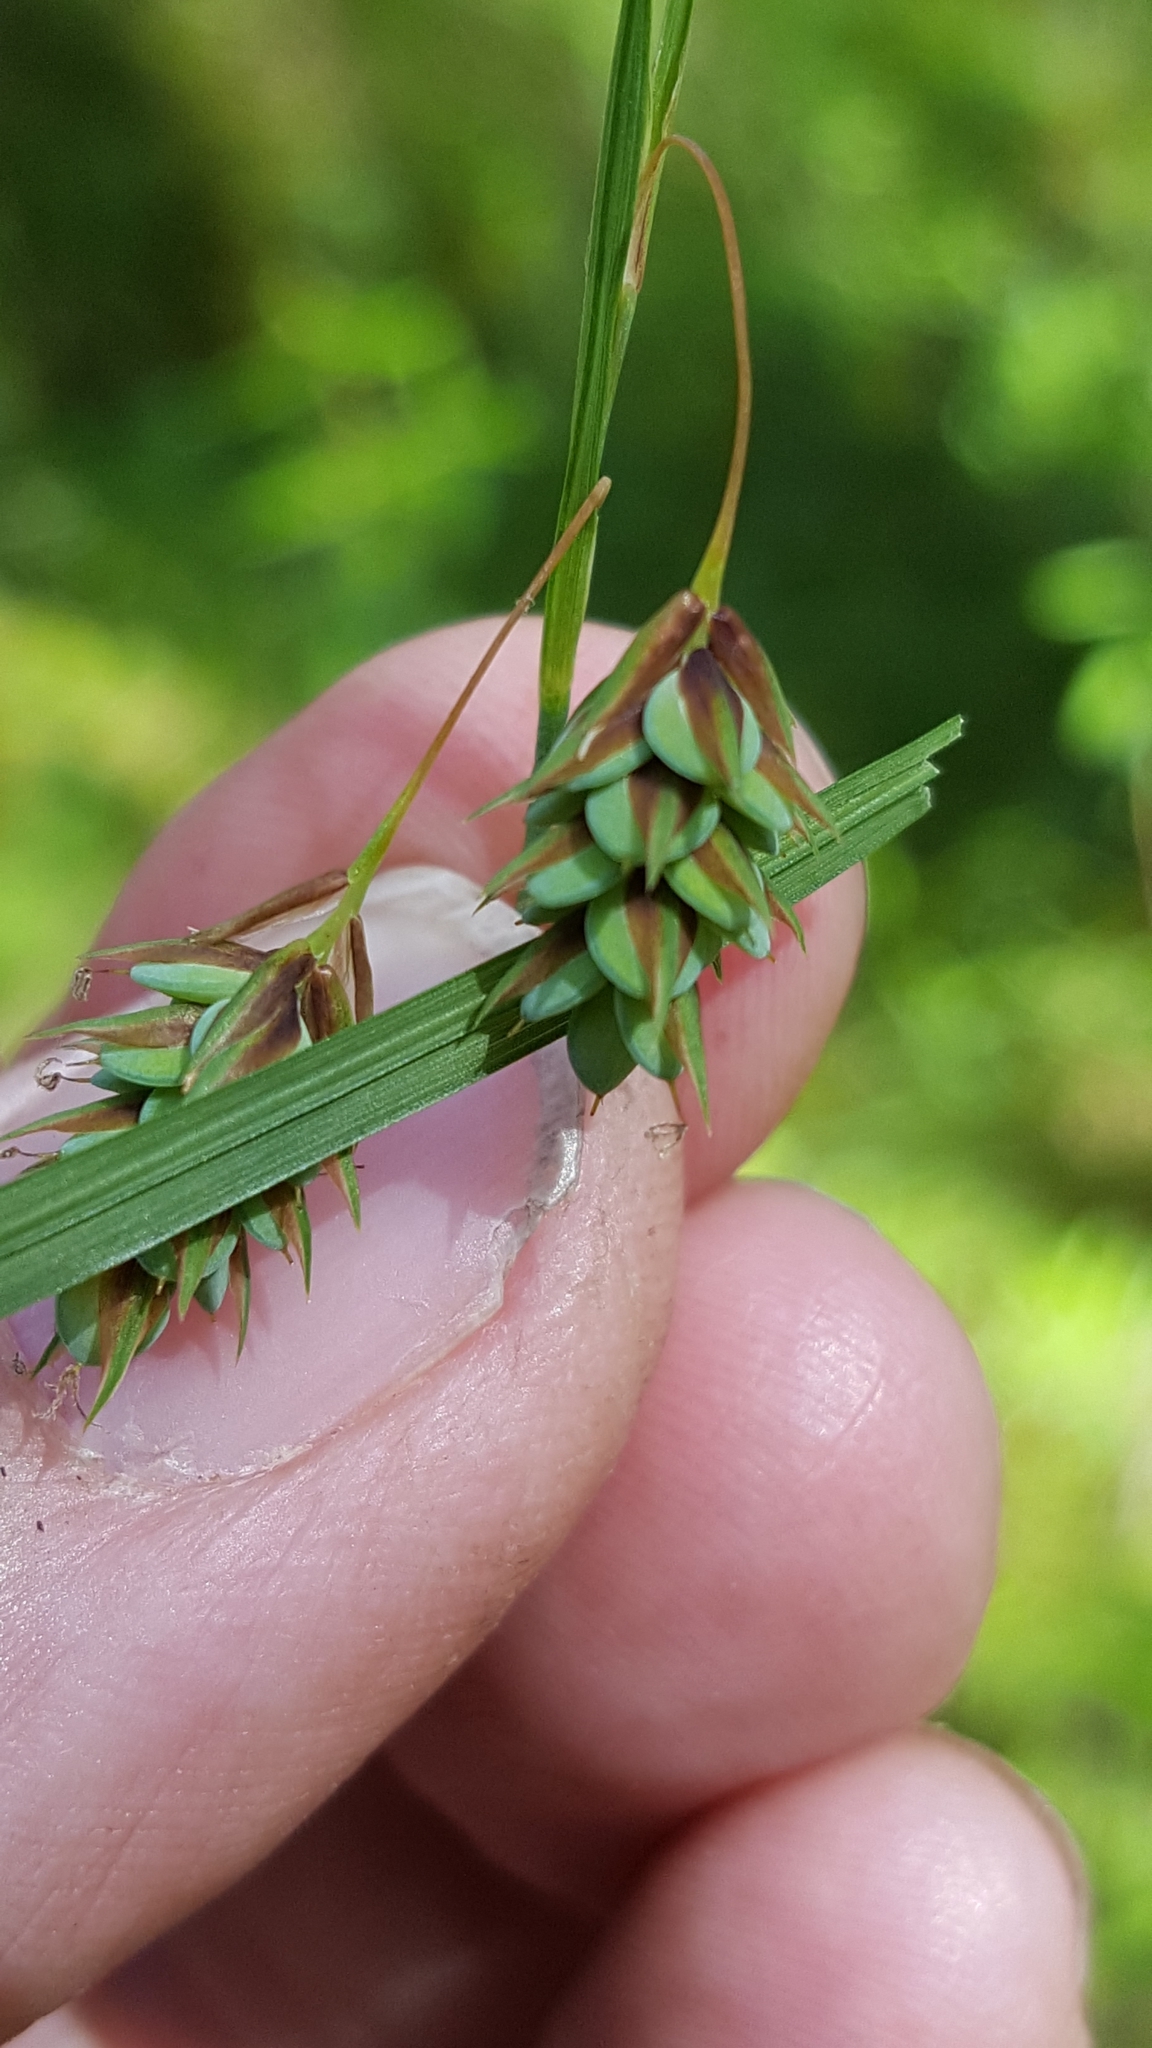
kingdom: Plantae
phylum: Tracheophyta
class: Liliopsida
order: Poales
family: Cyperaceae
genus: Carex
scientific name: Carex magellanica
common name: Bog sedge
